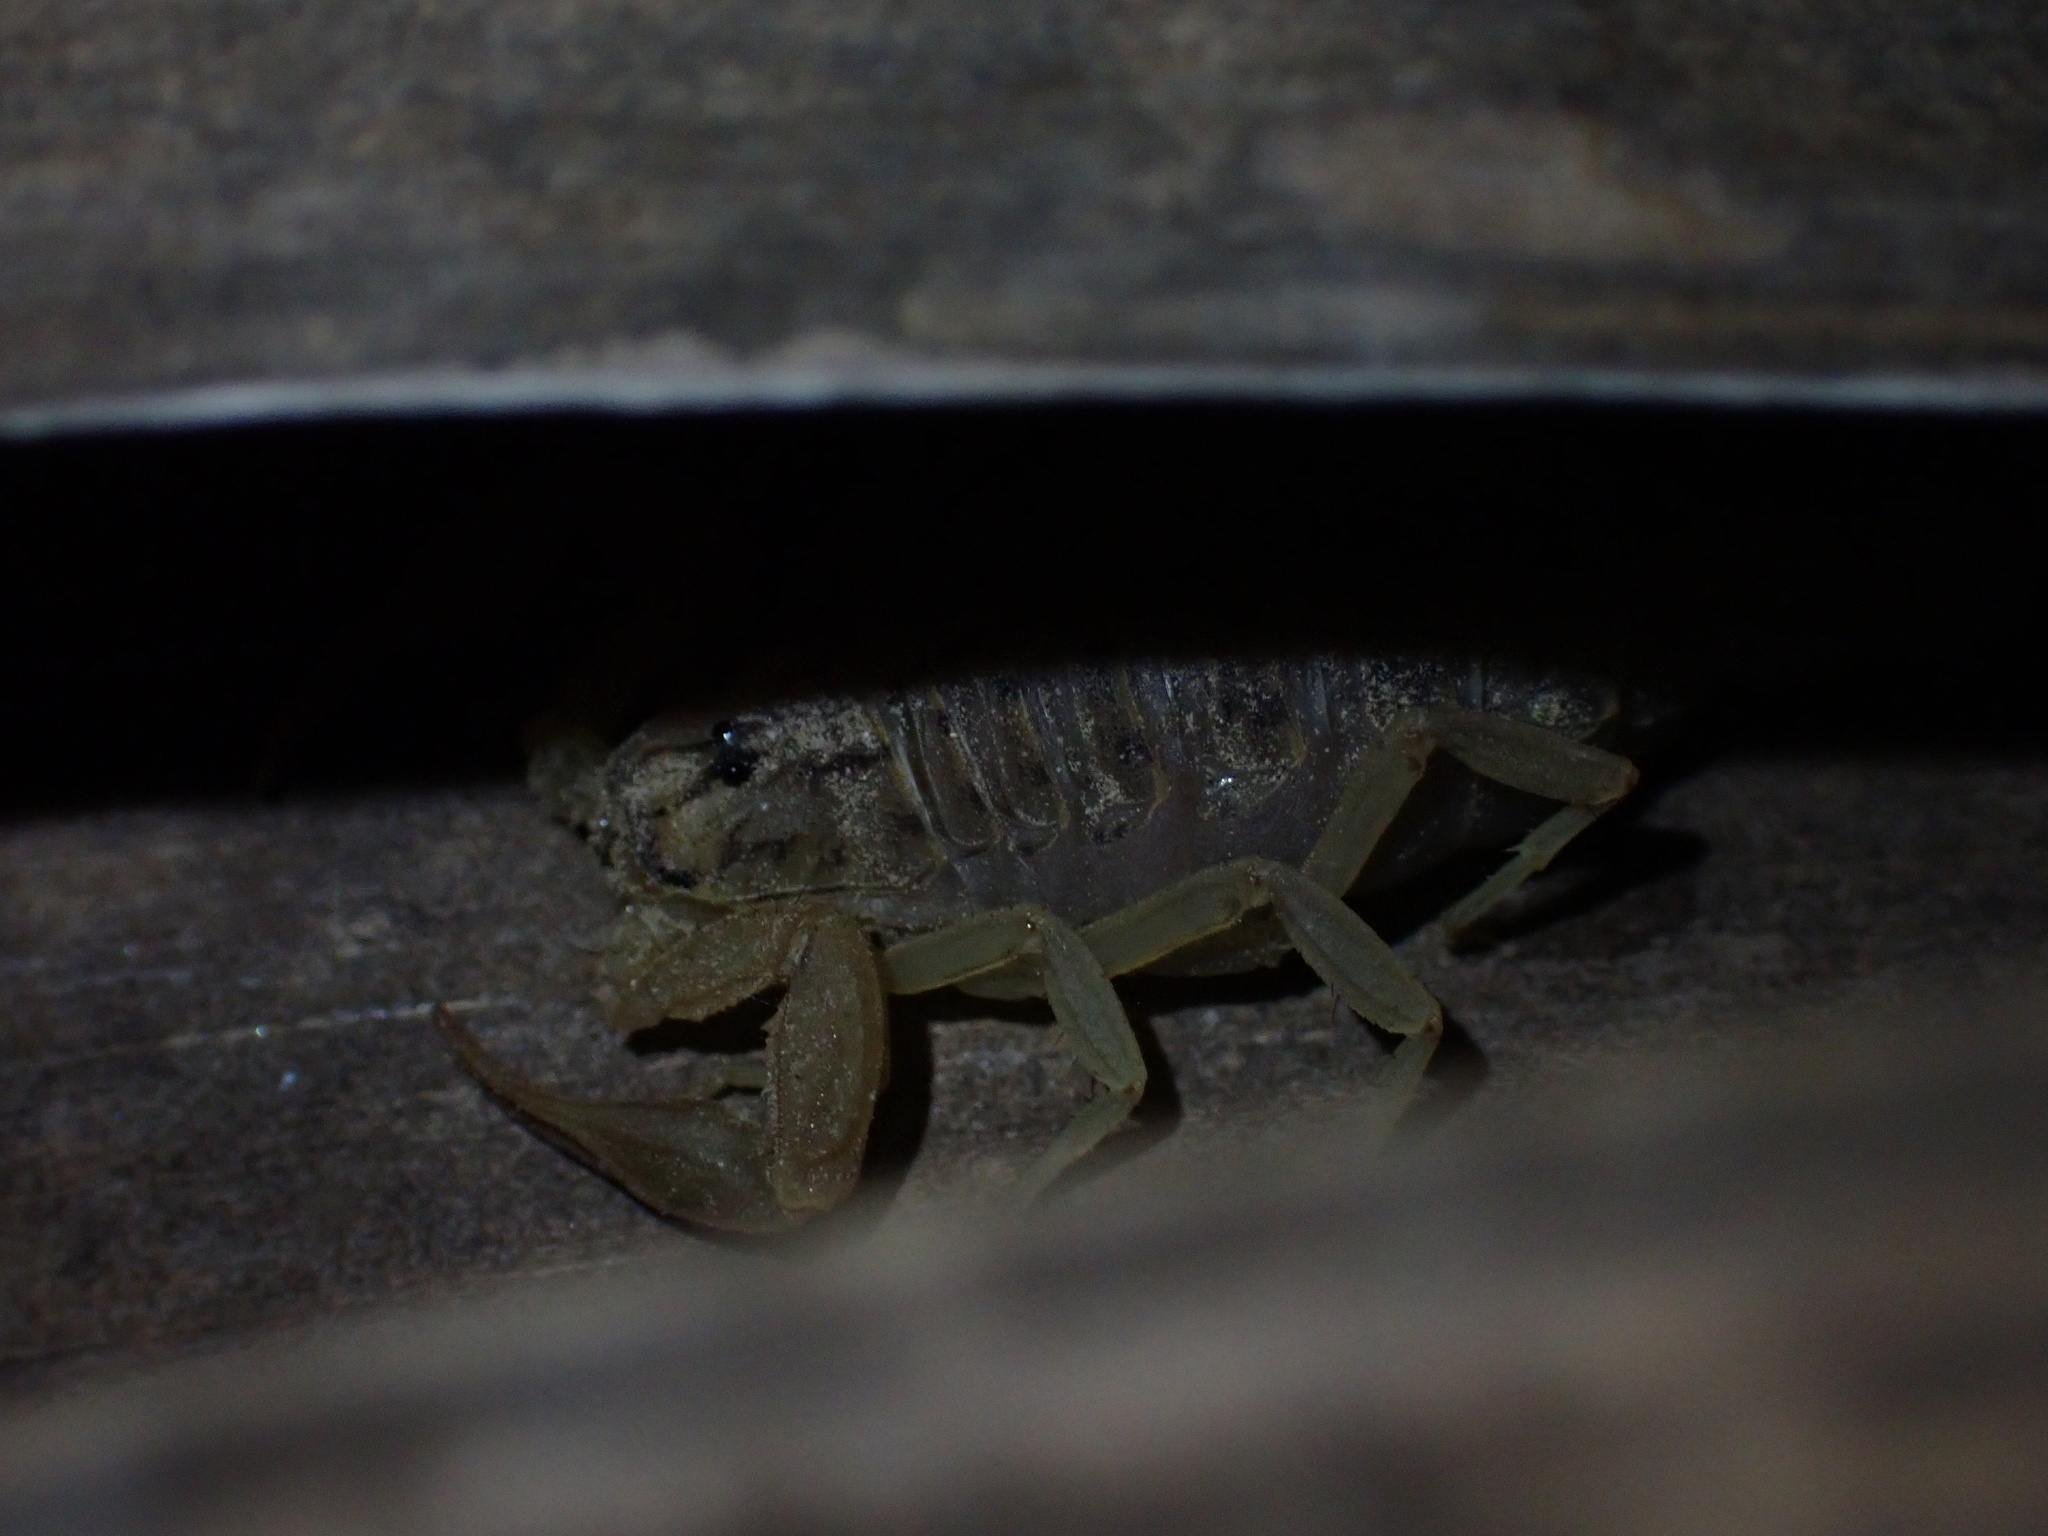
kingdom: Animalia
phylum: Arthropoda
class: Arachnida
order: Scorpiones
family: Buthidae
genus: Mesobuthus
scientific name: Mesobuthus mirshamsii
